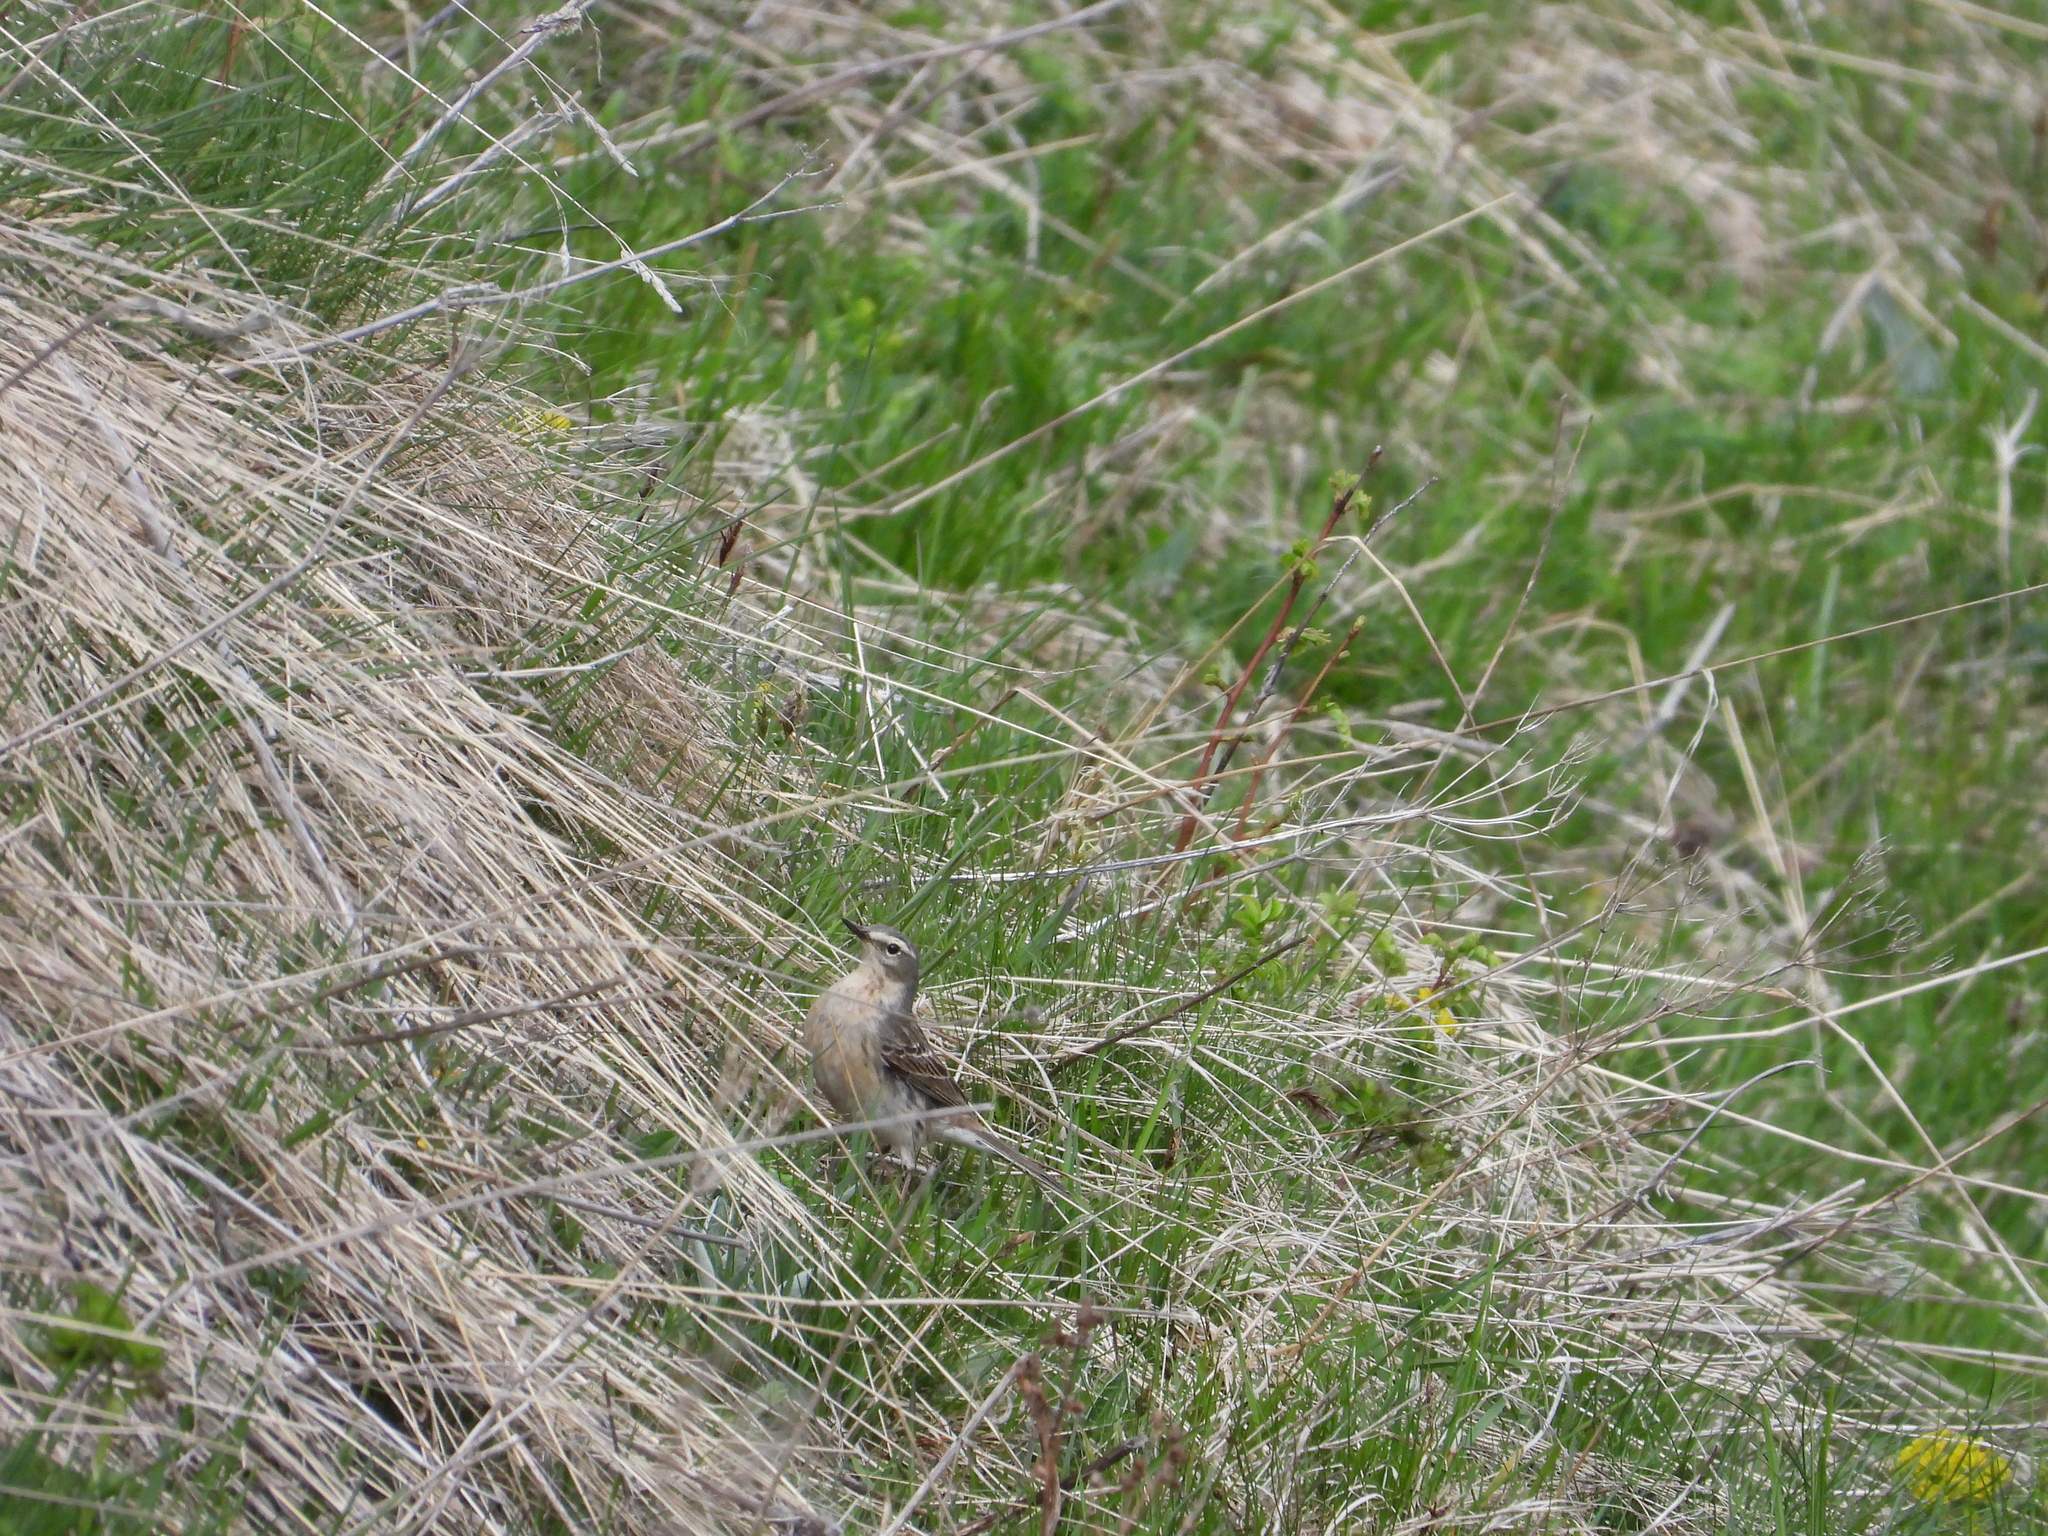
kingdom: Animalia
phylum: Chordata
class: Aves
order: Passeriformes
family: Motacillidae
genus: Anthus
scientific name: Anthus spinoletta
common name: Water pipit
